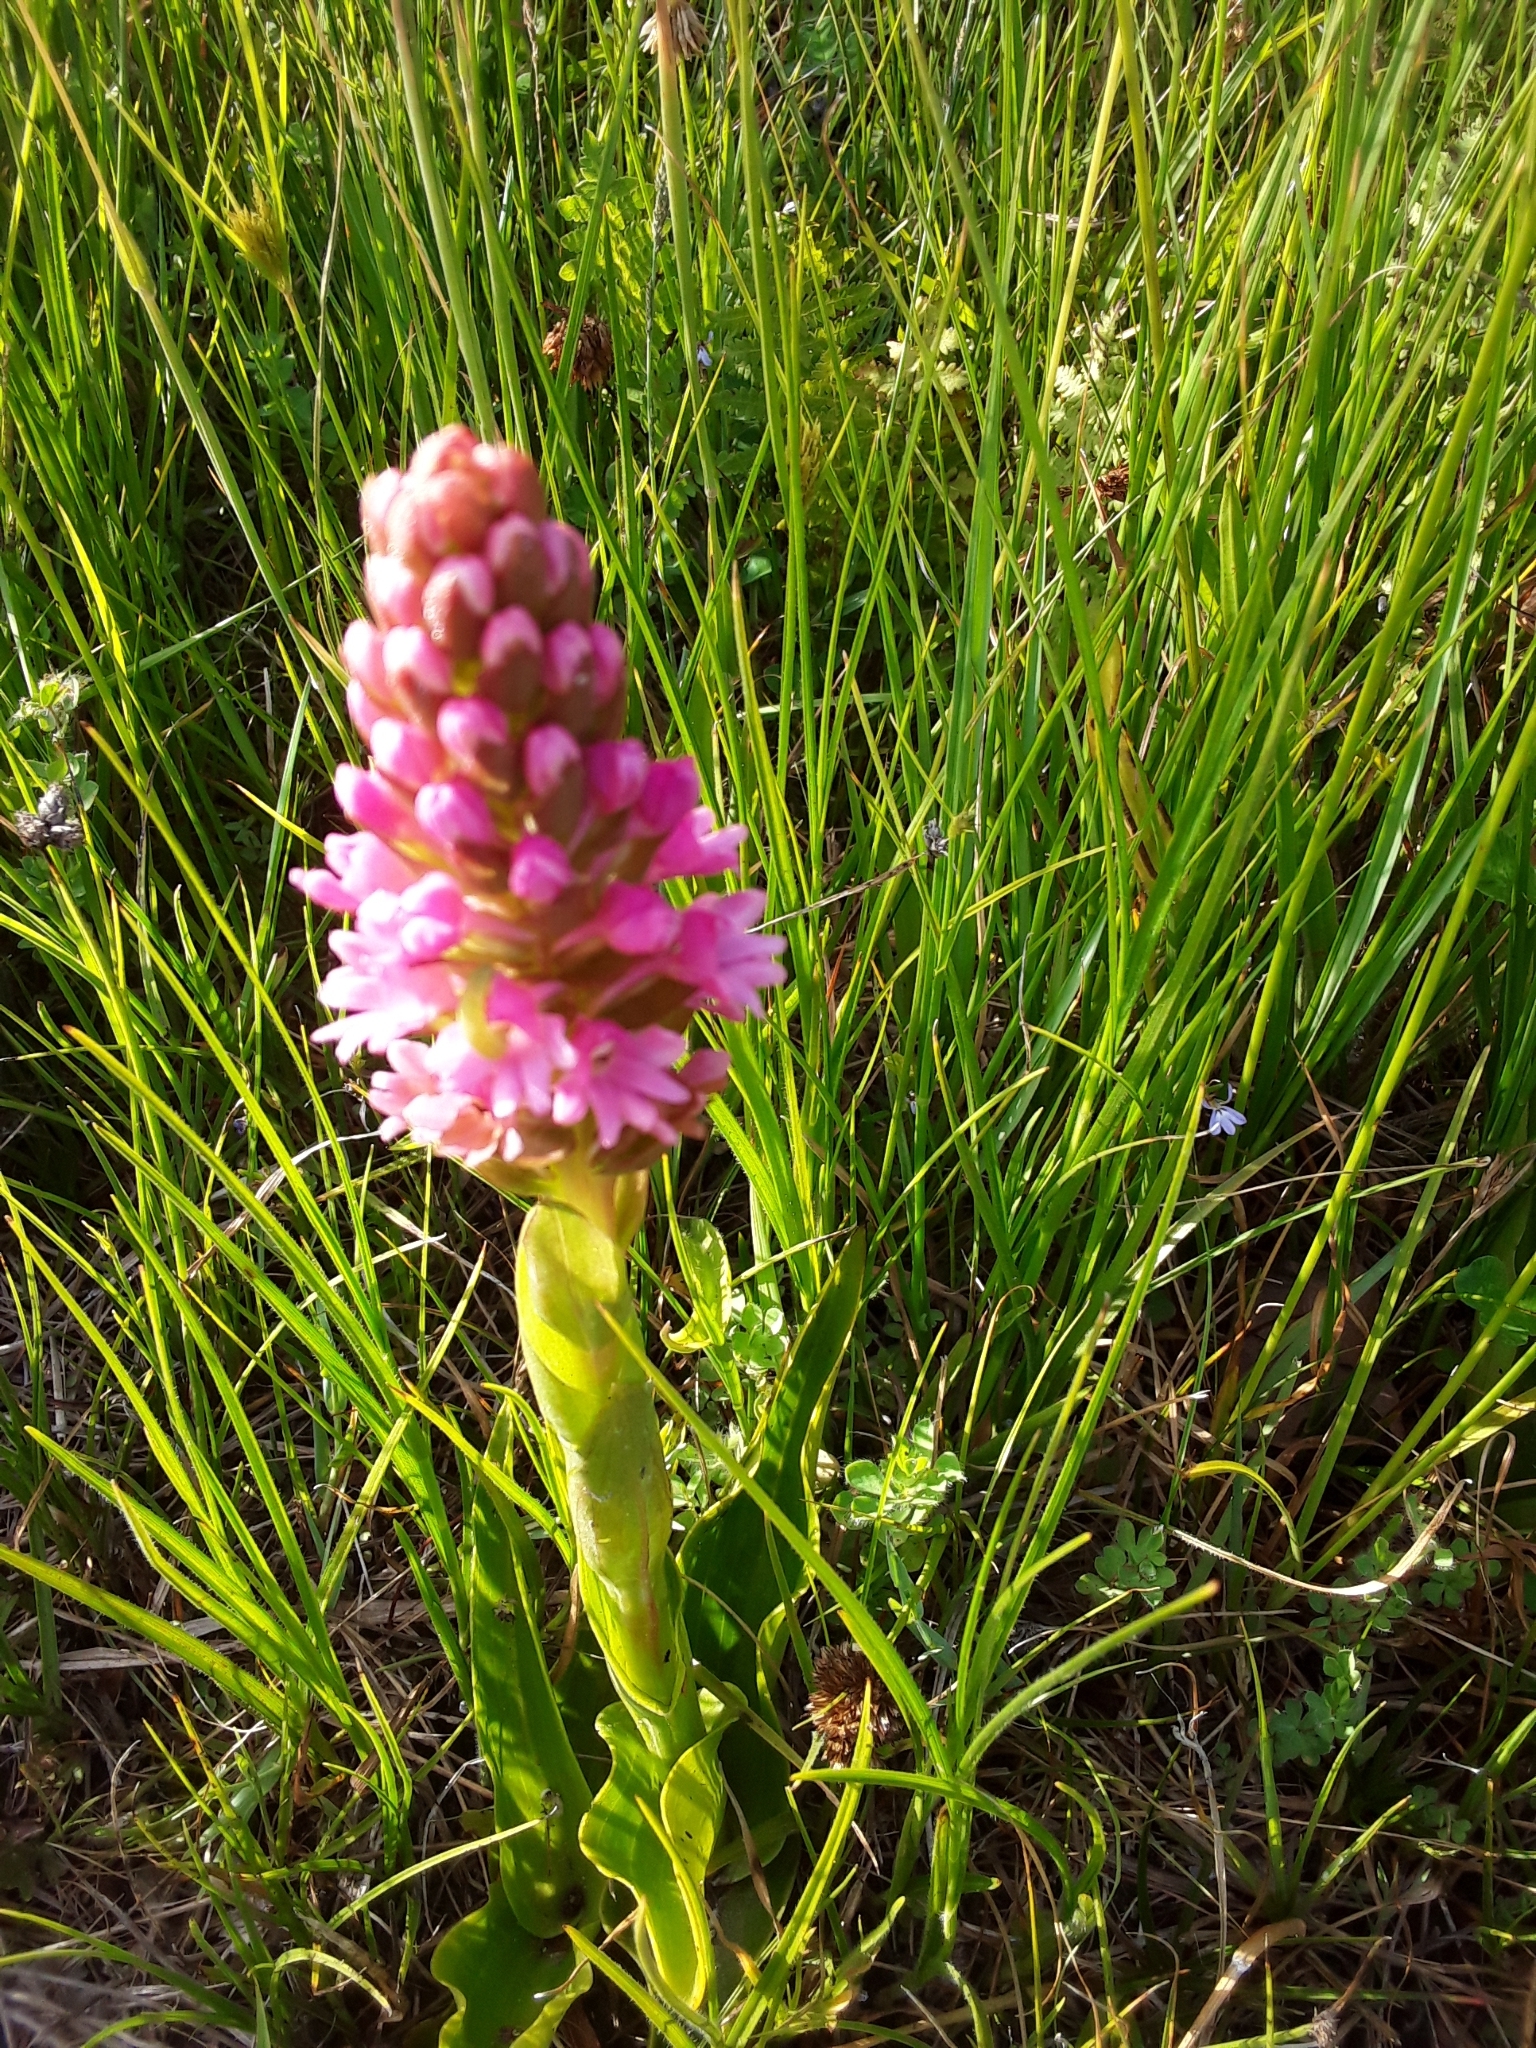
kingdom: Plantae
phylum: Tracheophyta
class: Liliopsida
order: Asparagales
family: Orchidaceae
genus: Satyrium
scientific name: Satyrium hallackii
